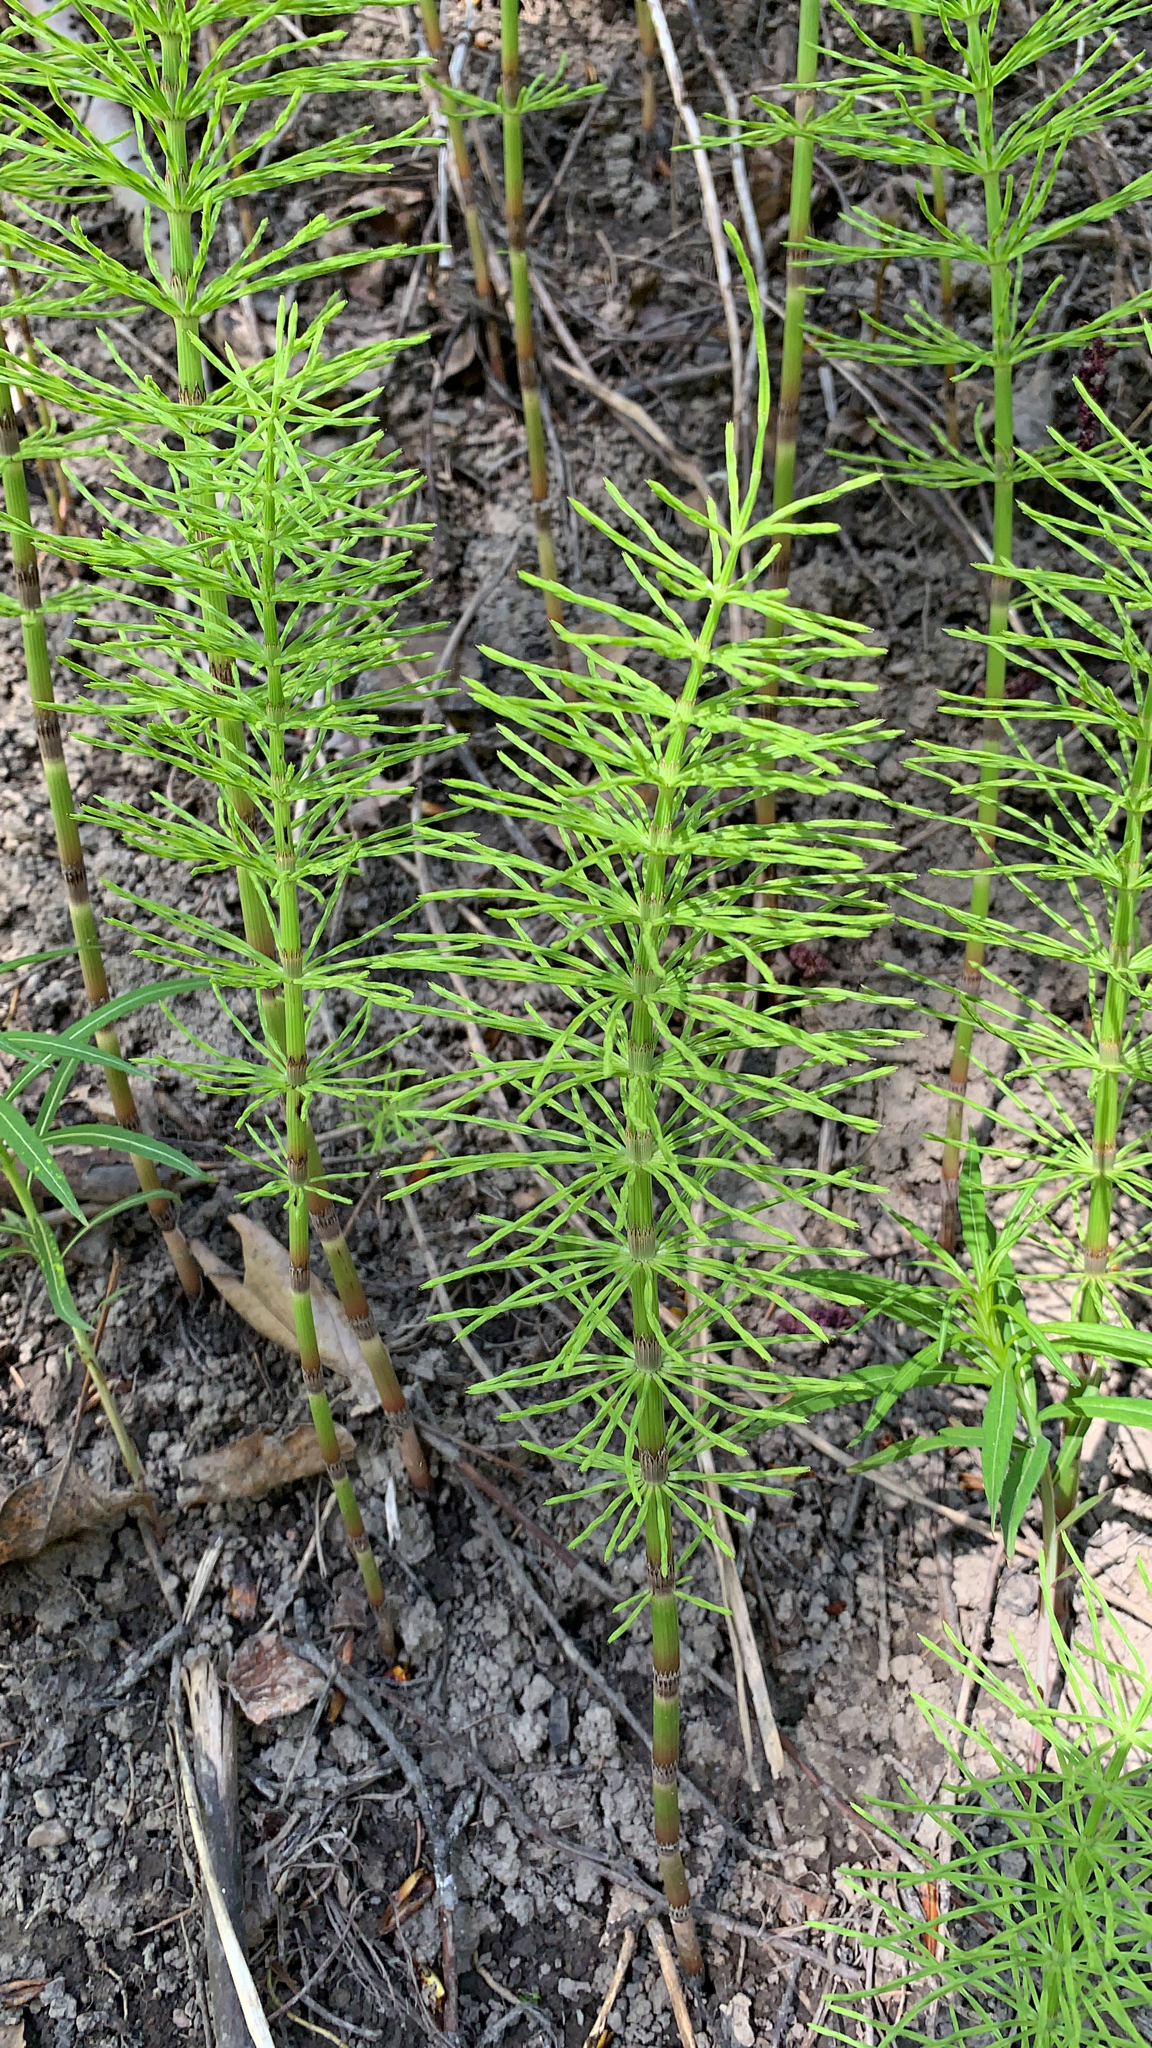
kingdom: Plantae
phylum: Tracheophyta
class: Polypodiopsida
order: Equisetales
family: Equisetaceae
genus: Equisetum
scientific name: Equisetum arvense
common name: Field horsetail
